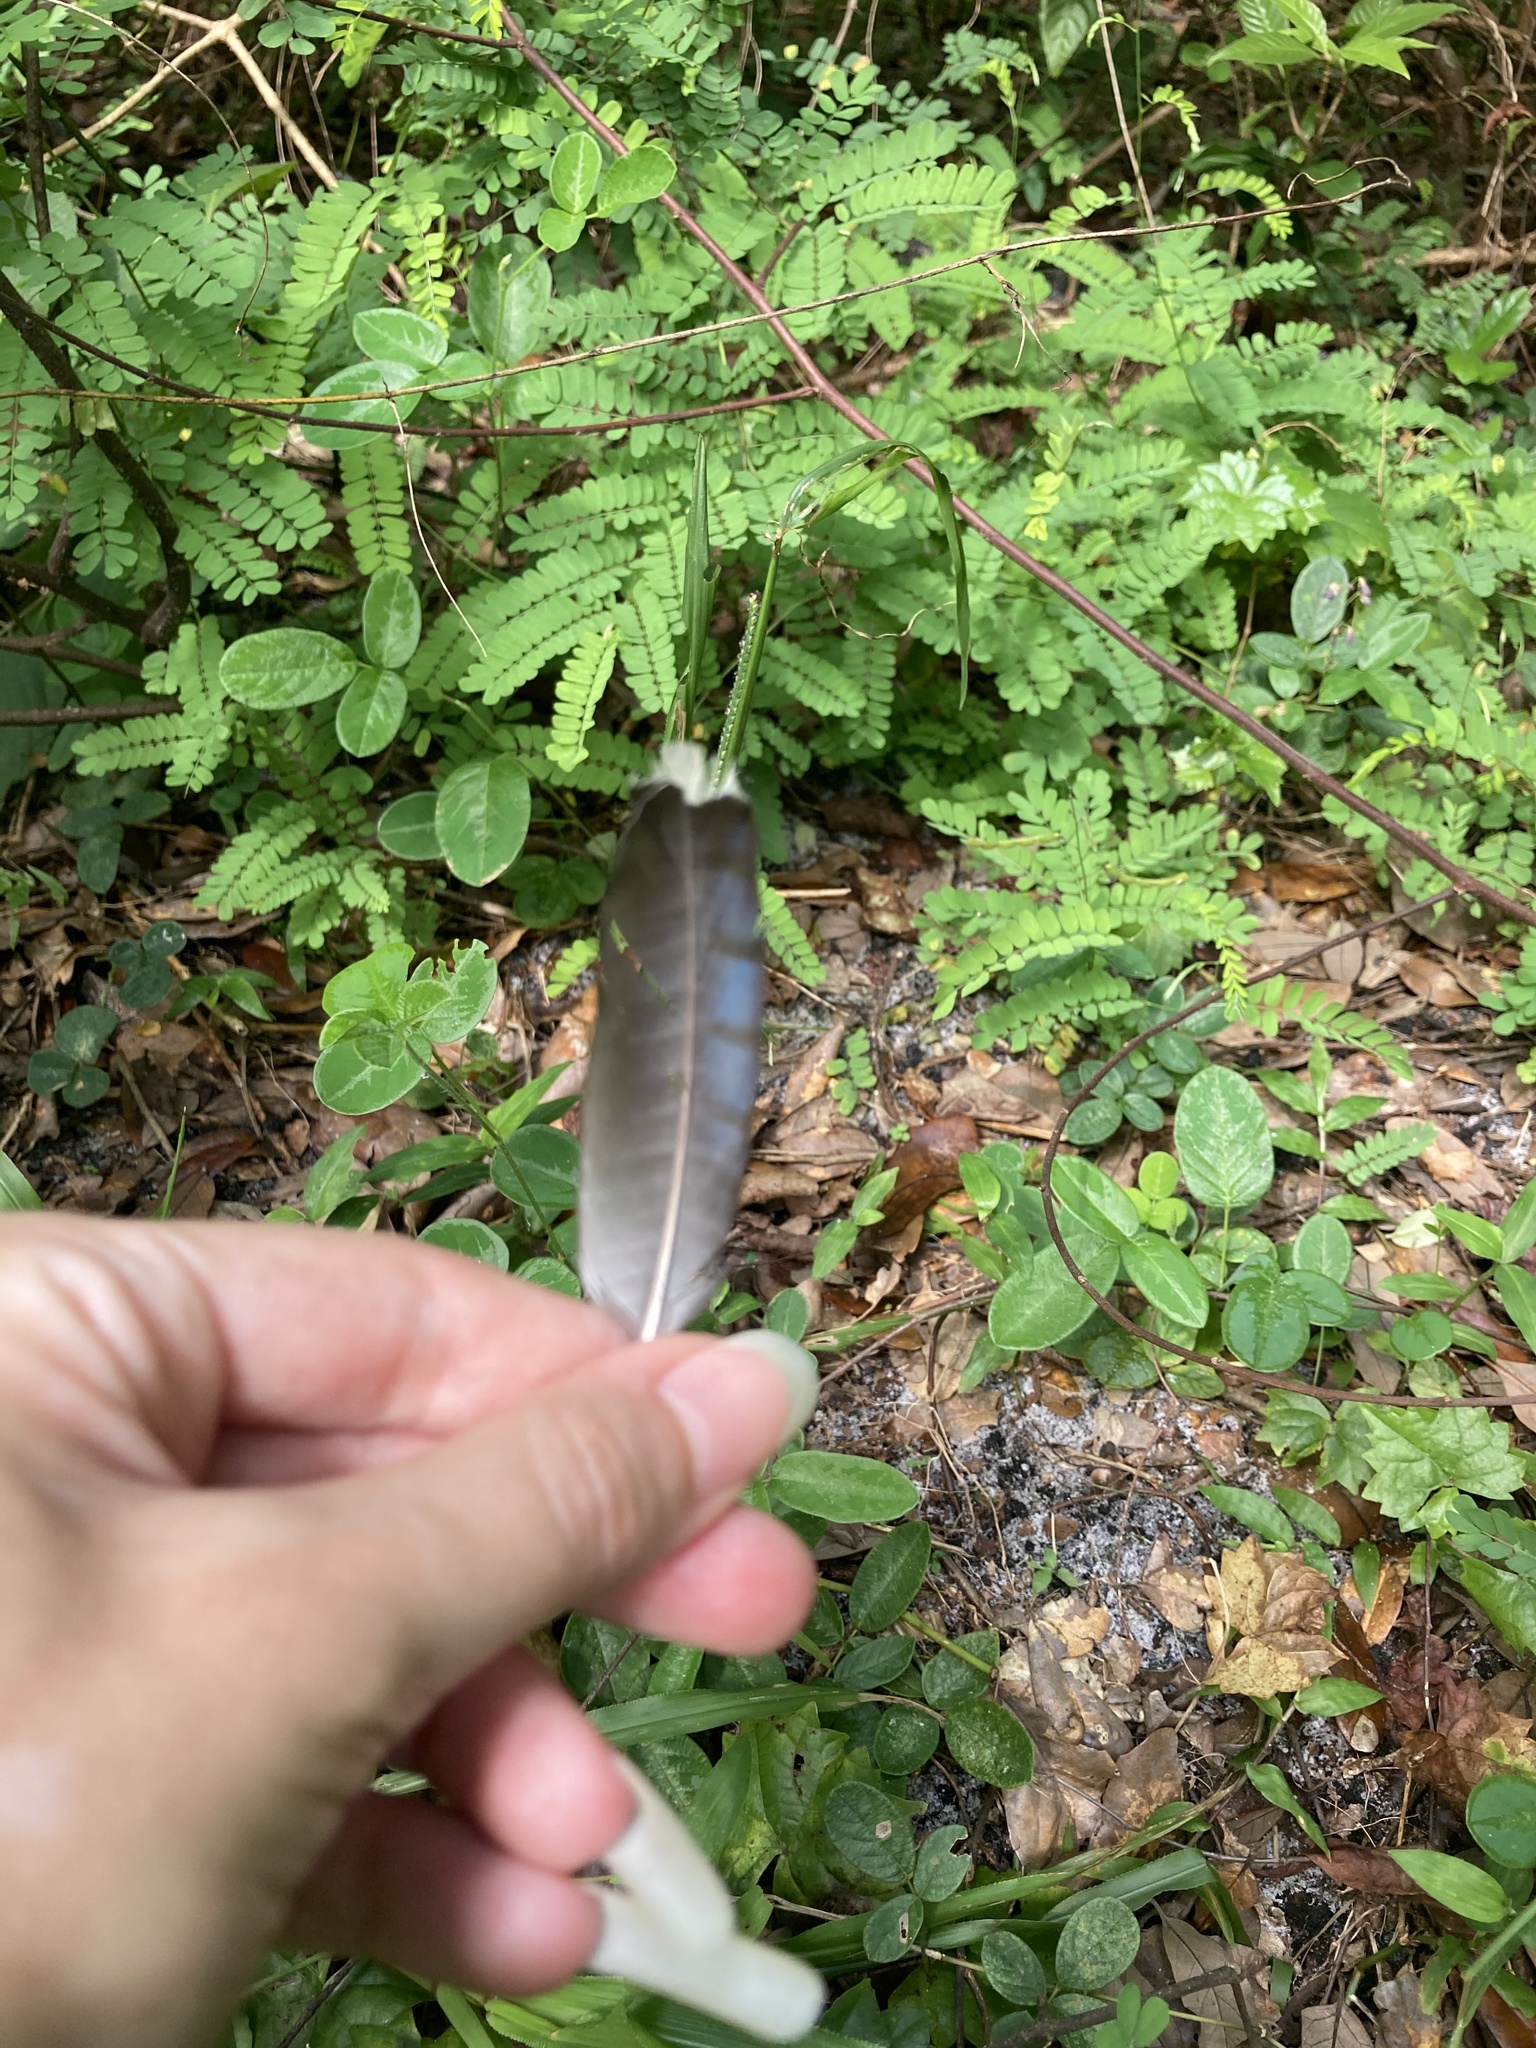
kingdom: Animalia
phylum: Chordata
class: Aves
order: Passeriformes
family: Corvidae
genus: Cyanocitta
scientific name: Cyanocitta cristata
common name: Blue jay
